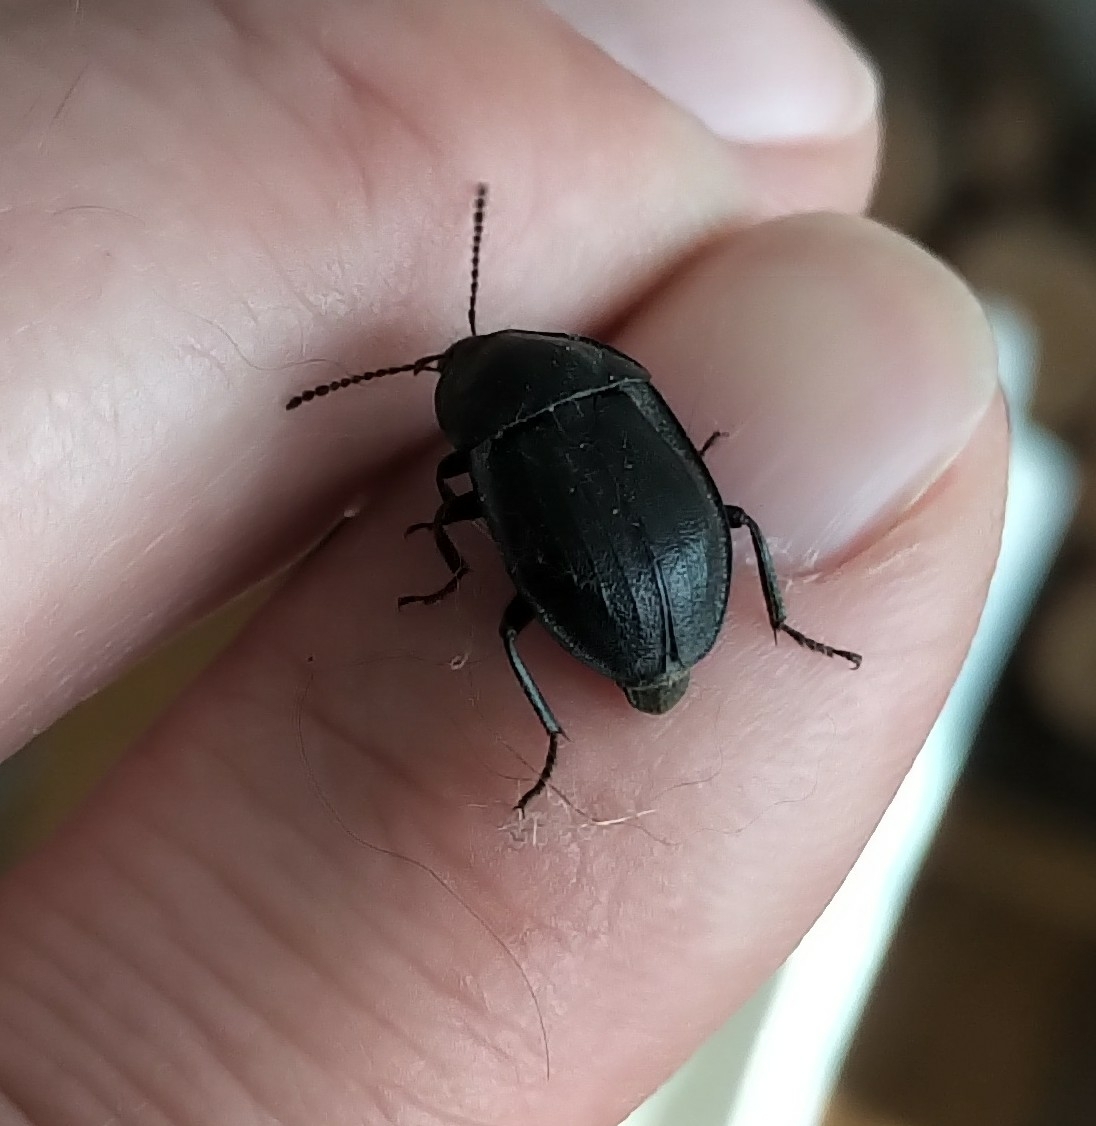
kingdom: Animalia
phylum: Arthropoda
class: Insecta
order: Coleoptera
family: Staphylinidae
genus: Silpha
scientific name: Silpha atrata
